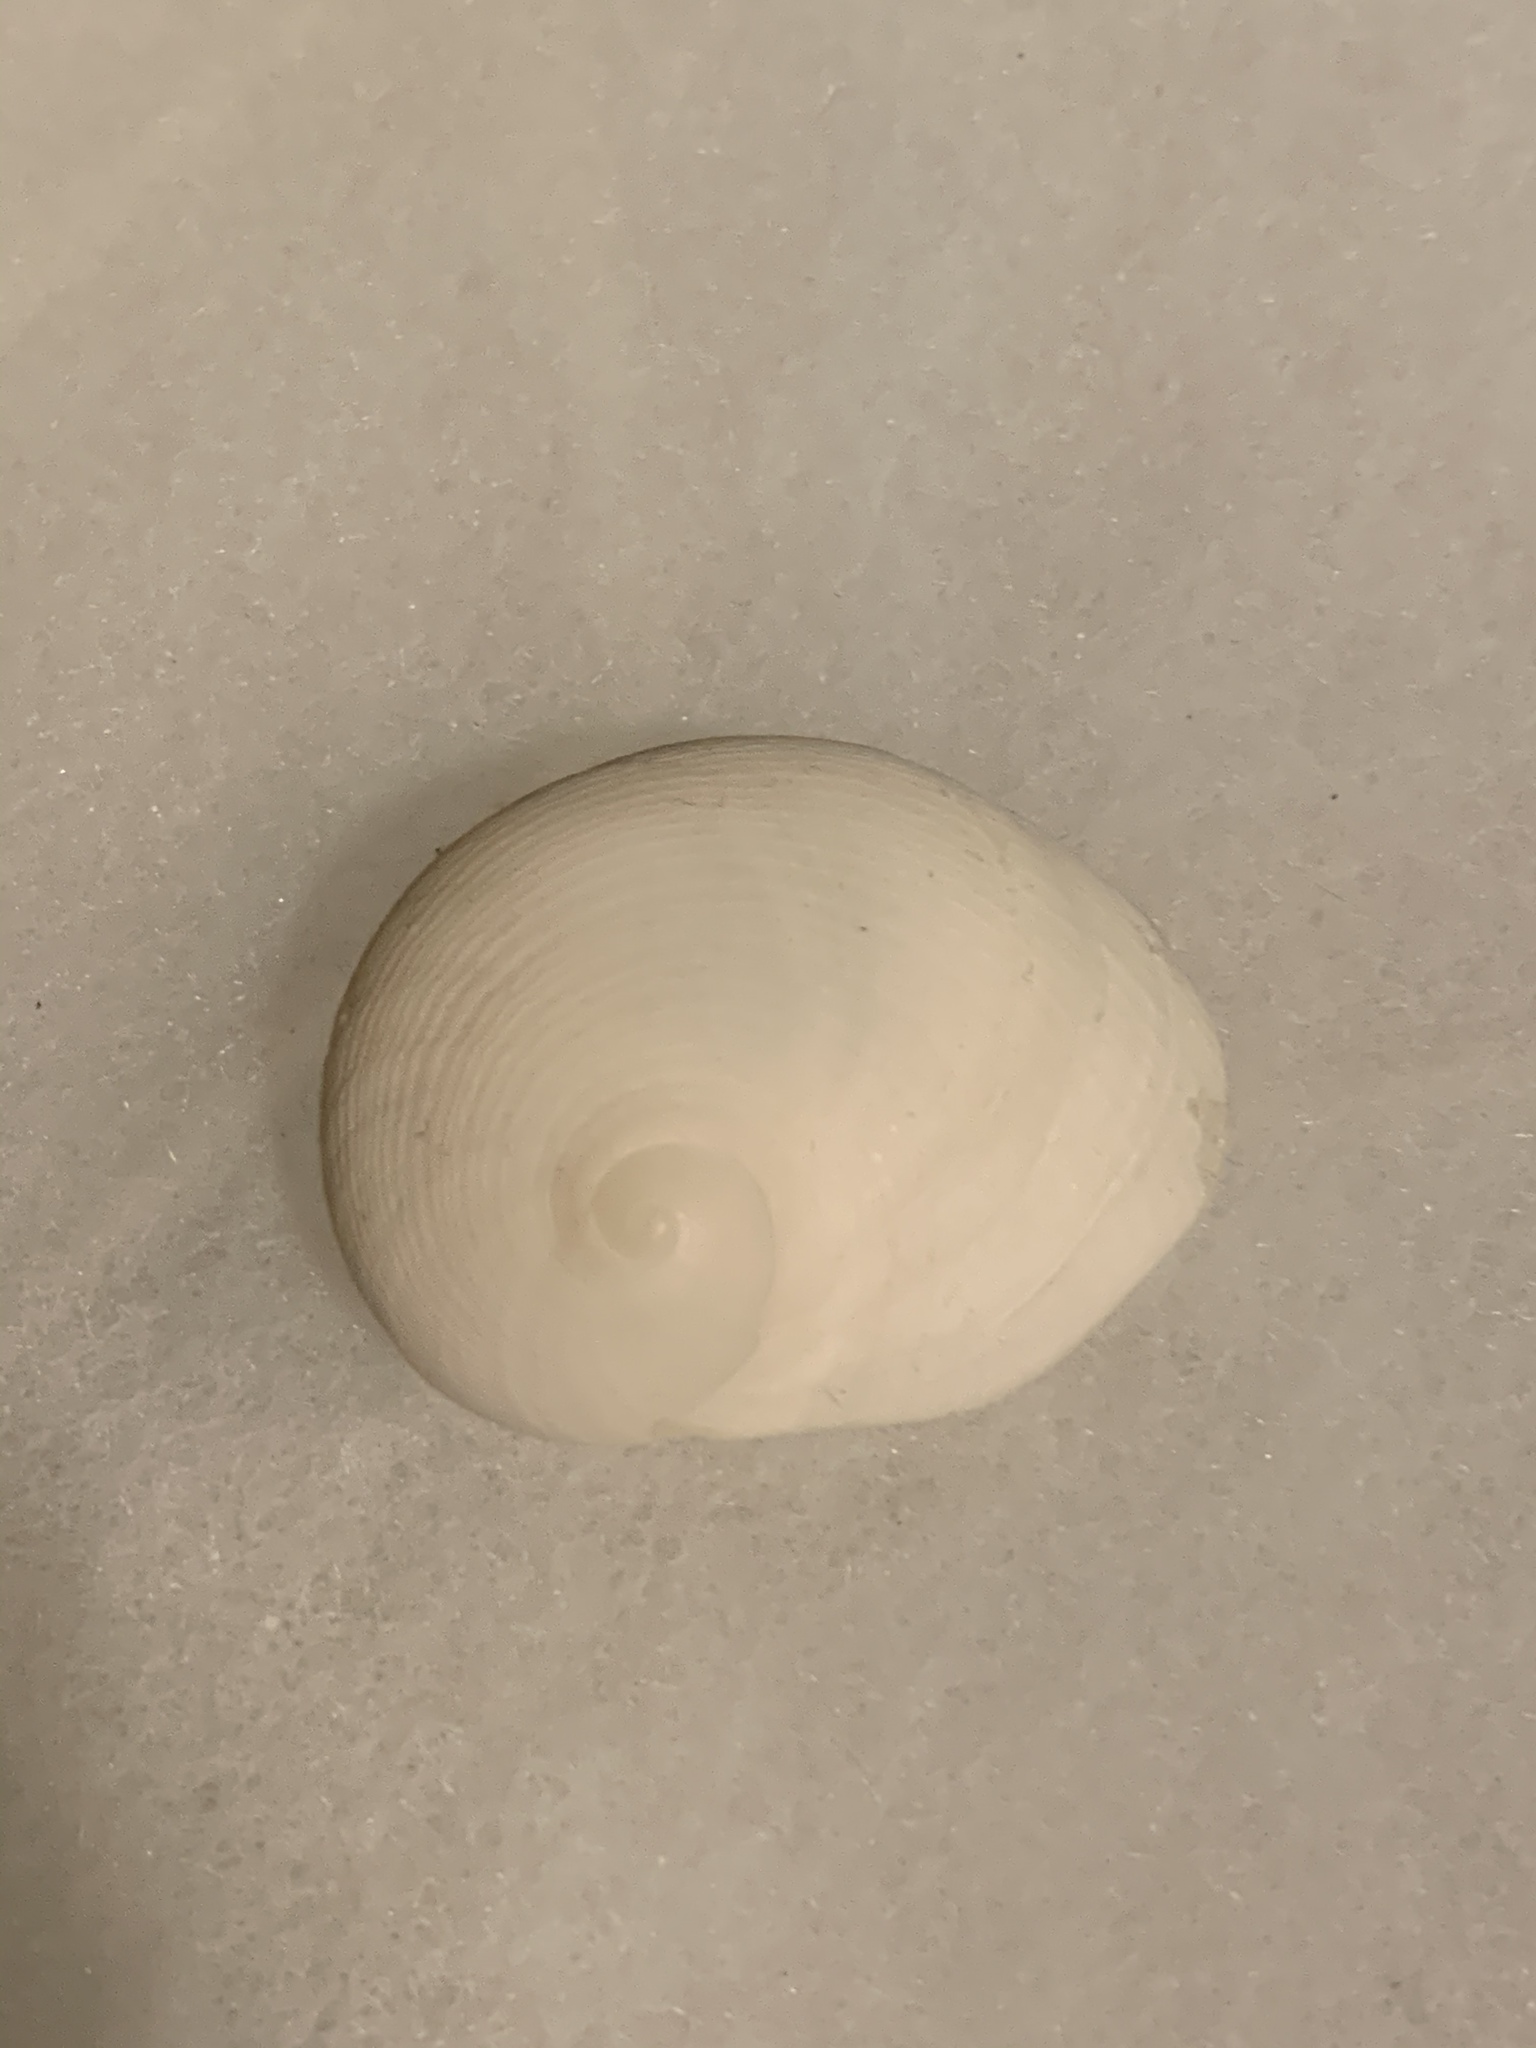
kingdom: Animalia
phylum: Mollusca
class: Gastropoda
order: Littorinimorpha
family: Naticidae
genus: Sinum
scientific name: Sinum perspectivum
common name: White baby ear
